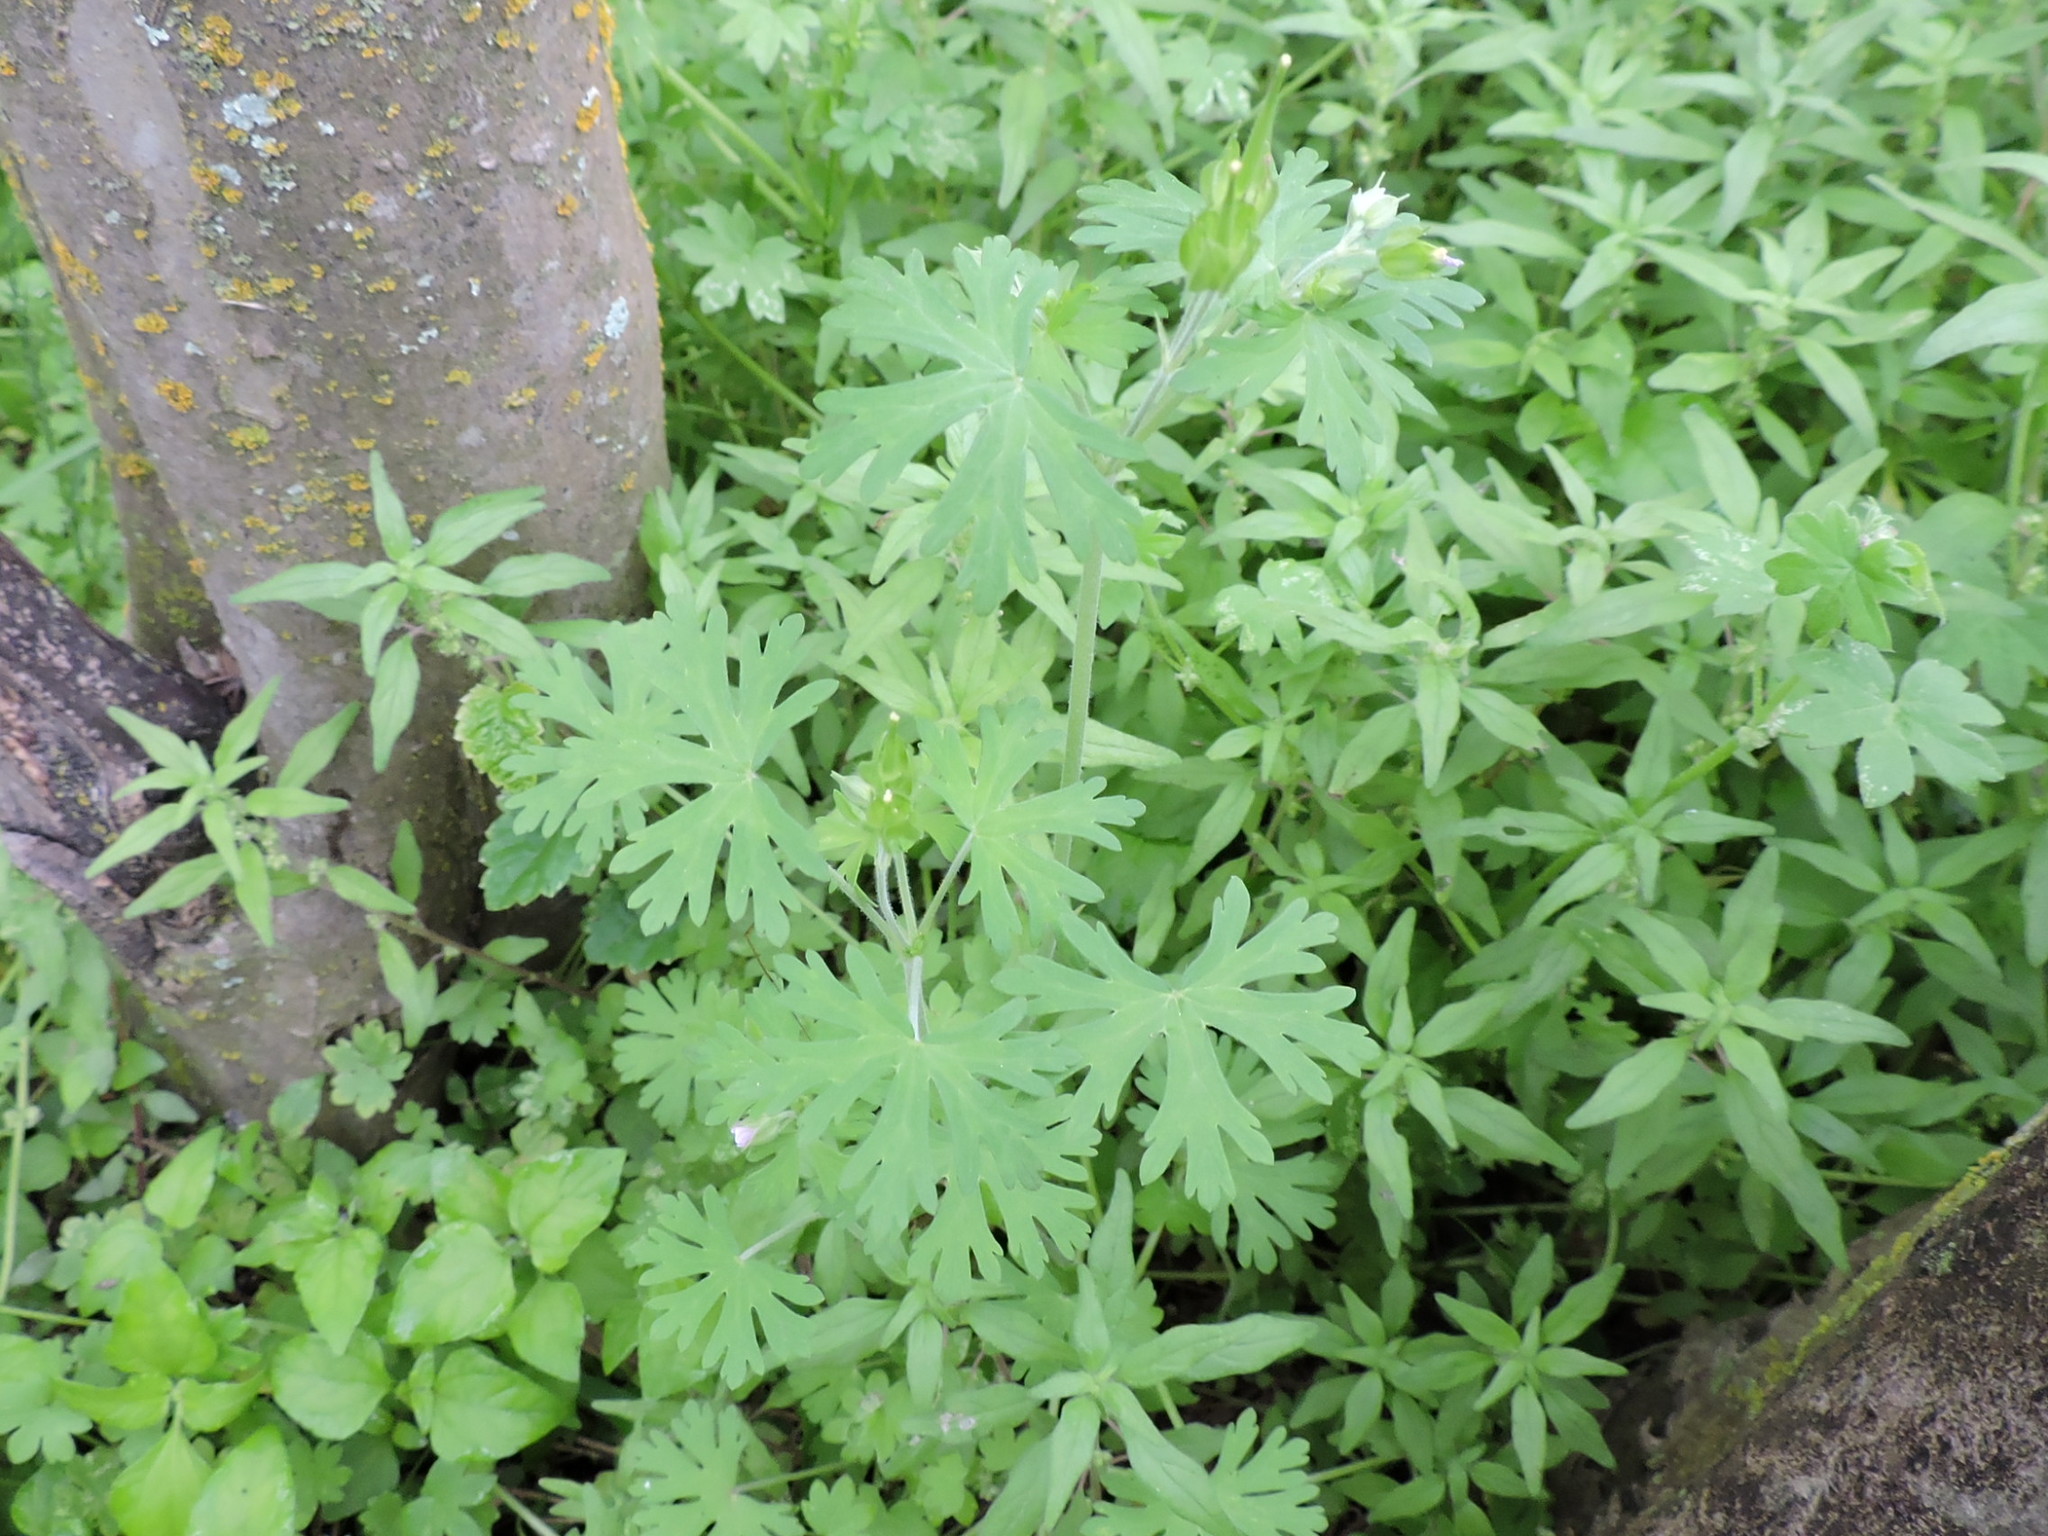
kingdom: Plantae
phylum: Tracheophyta
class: Magnoliopsida
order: Geraniales
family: Geraniaceae
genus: Geranium
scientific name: Geranium carolinianum
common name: Carolina crane's-bill
